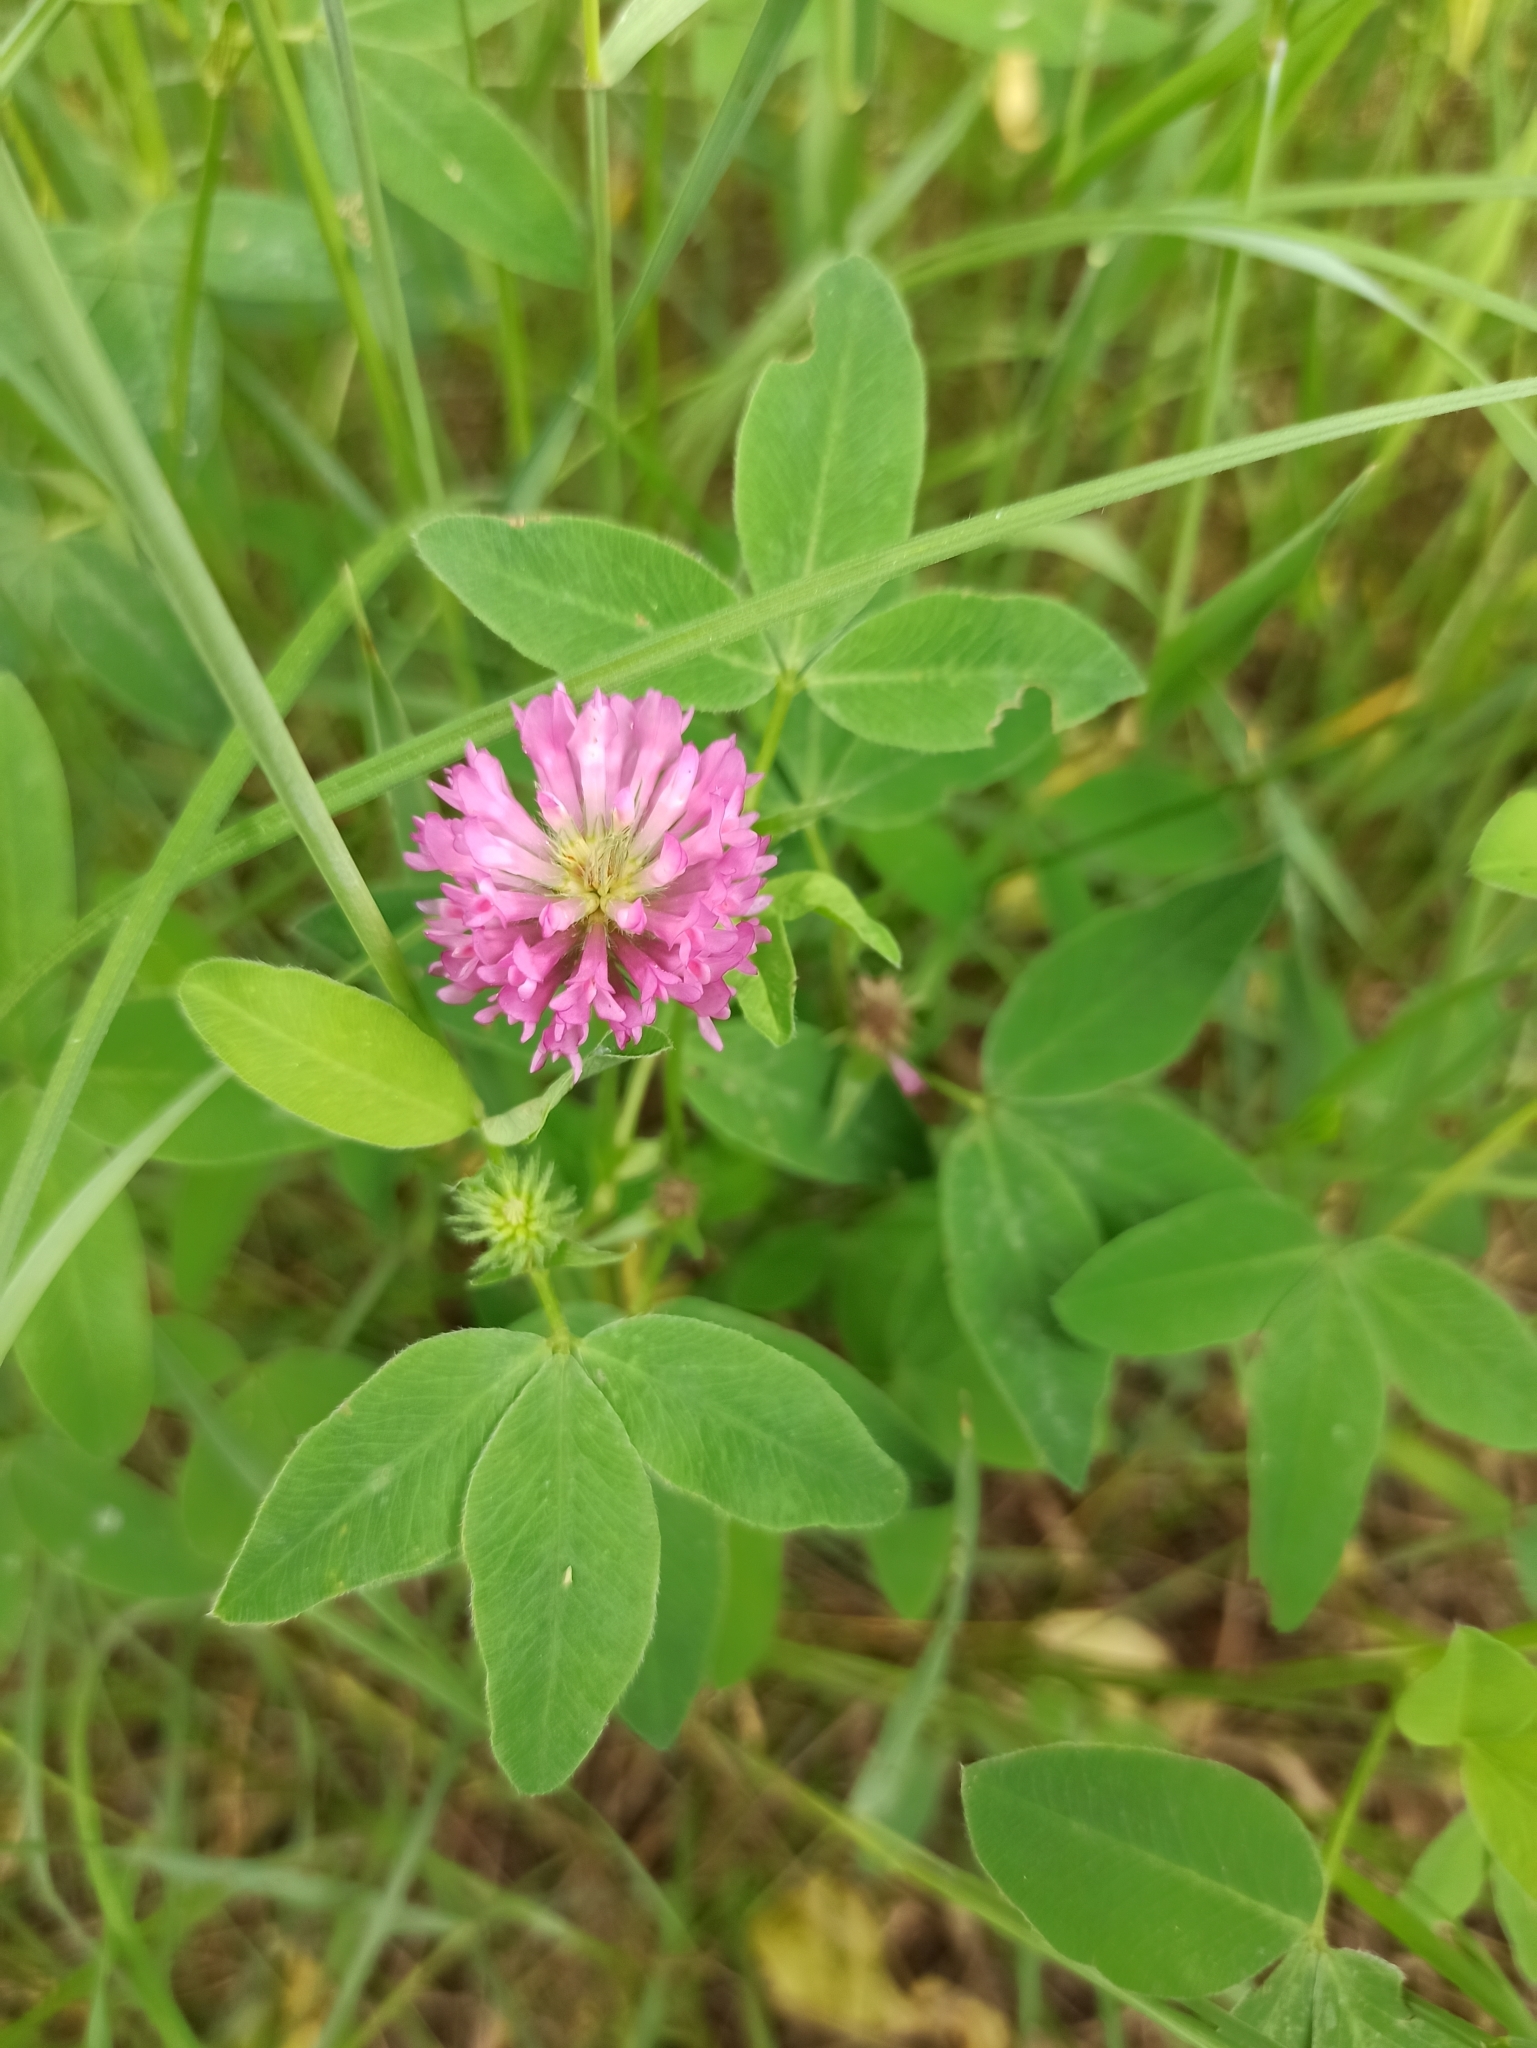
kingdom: Plantae
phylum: Tracheophyta
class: Magnoliopsida
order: Fabales
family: Fabaceae
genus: Trifolium
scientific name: Trifolium medium
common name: Zigzag clover
